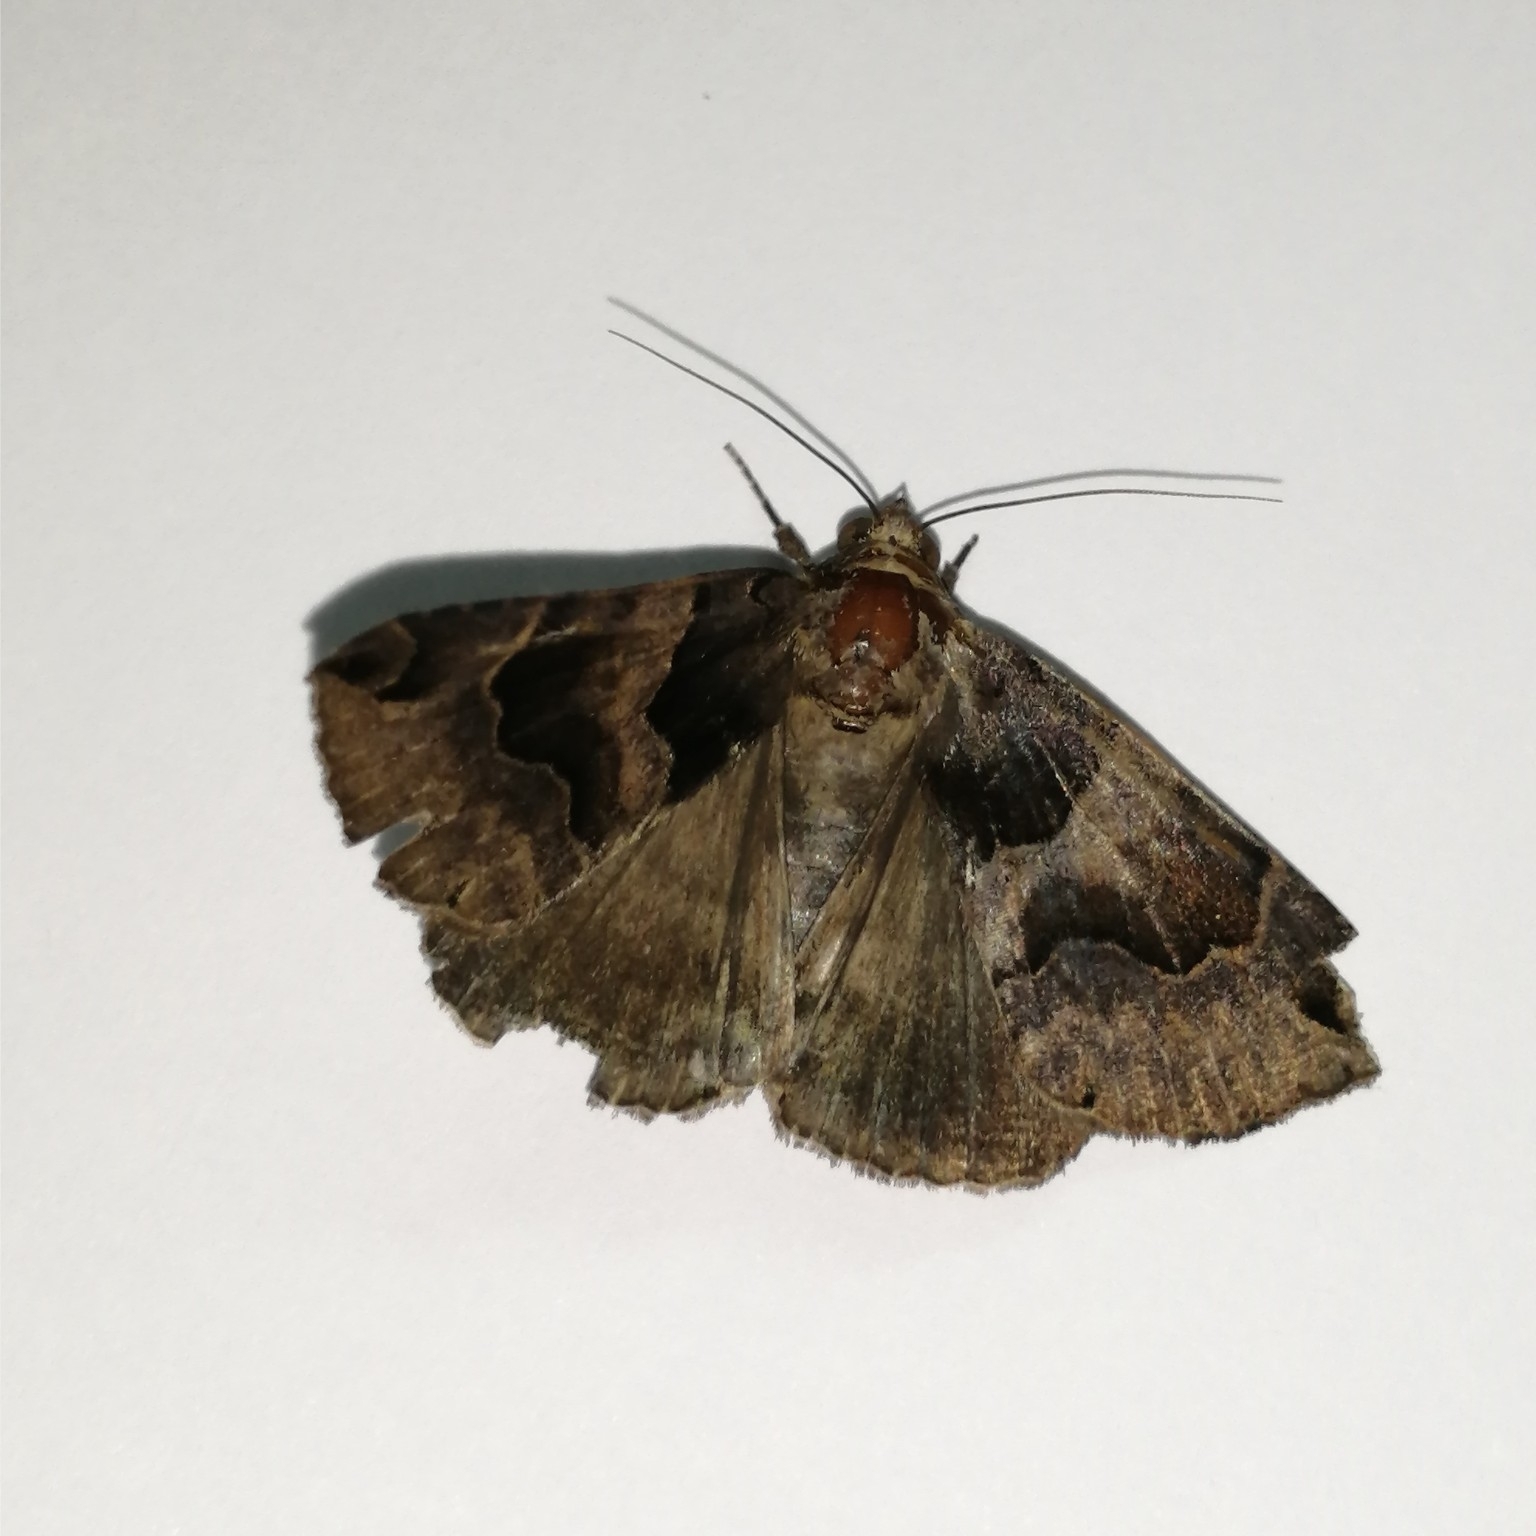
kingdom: Animalia
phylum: Arthropoda
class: Insecta
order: Lepidoptera
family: Erebidae
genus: Dysgonia
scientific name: Dysgonia simillima
